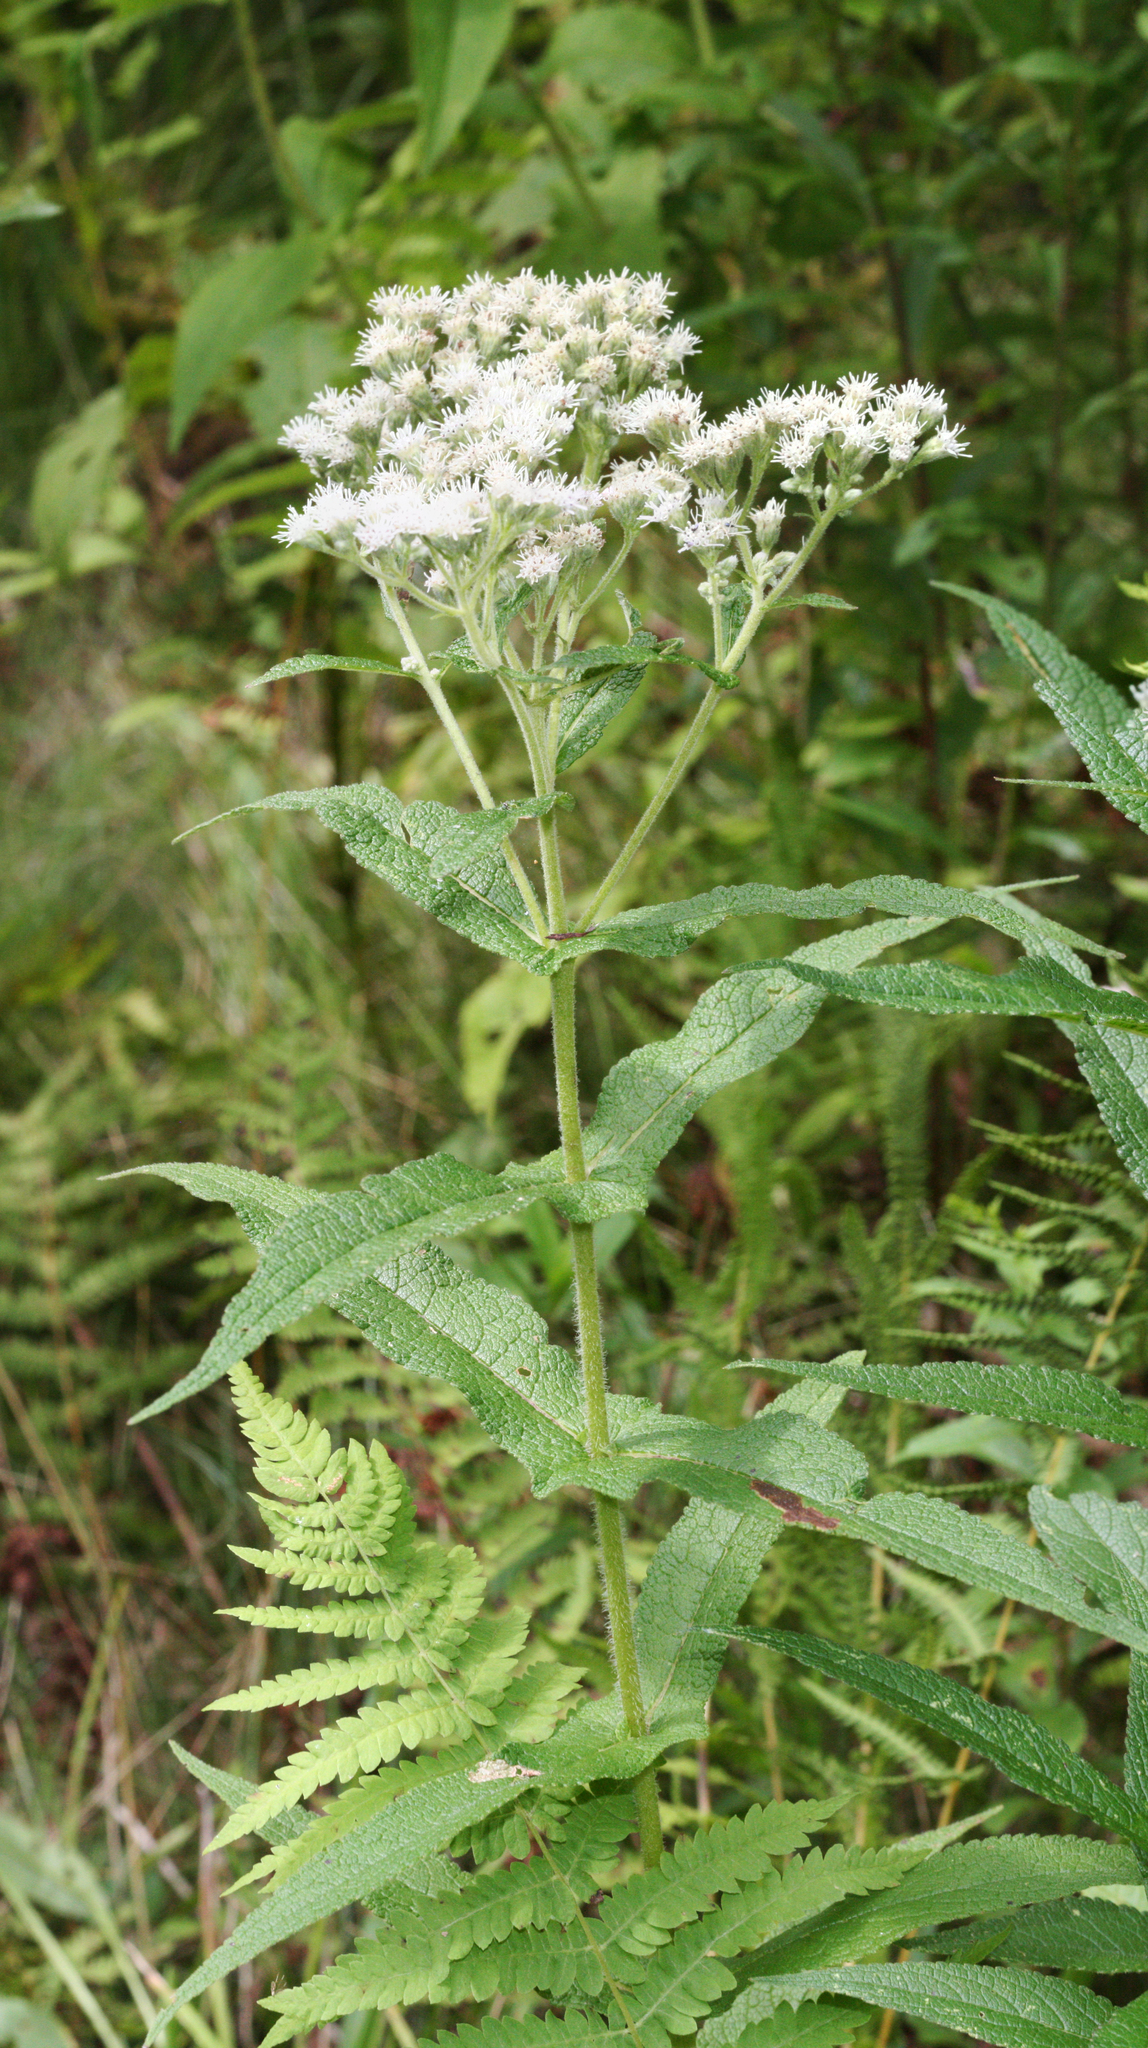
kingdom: Plantae
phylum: Tracheophyta
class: Magnoliopsida
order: Asterales
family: Asteraceae
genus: Eupatorium
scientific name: Eupatorium perfoliatum
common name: Boneset
